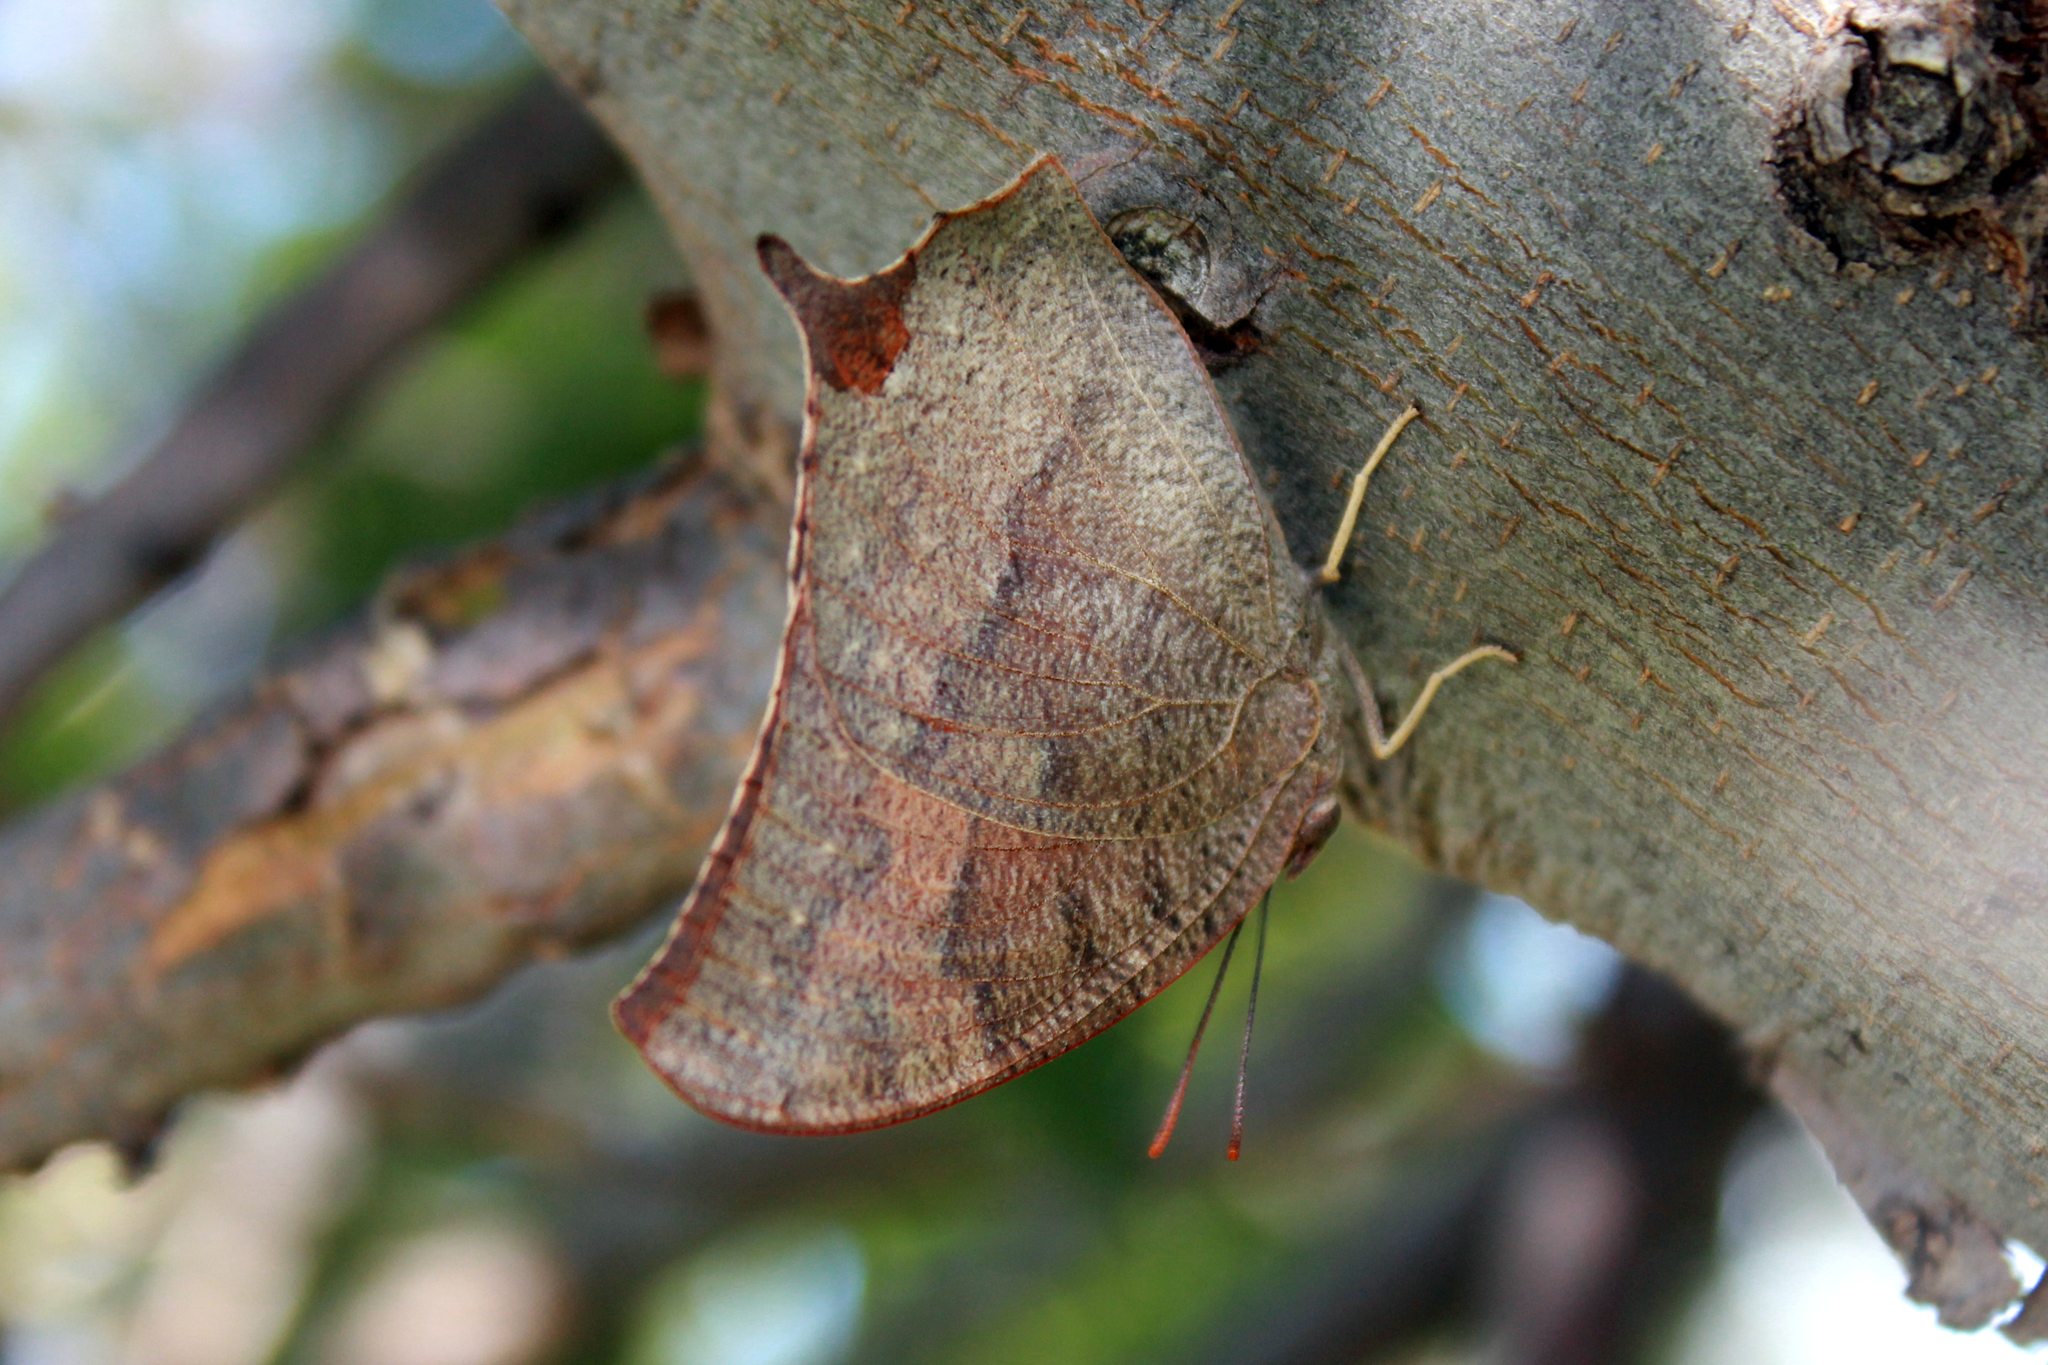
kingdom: Animalia
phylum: Arthropoda
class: Insecta
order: Lepidoptera
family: Nymphalidae
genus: Anaea
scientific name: Anaea andria
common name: Goatweed leafwing
